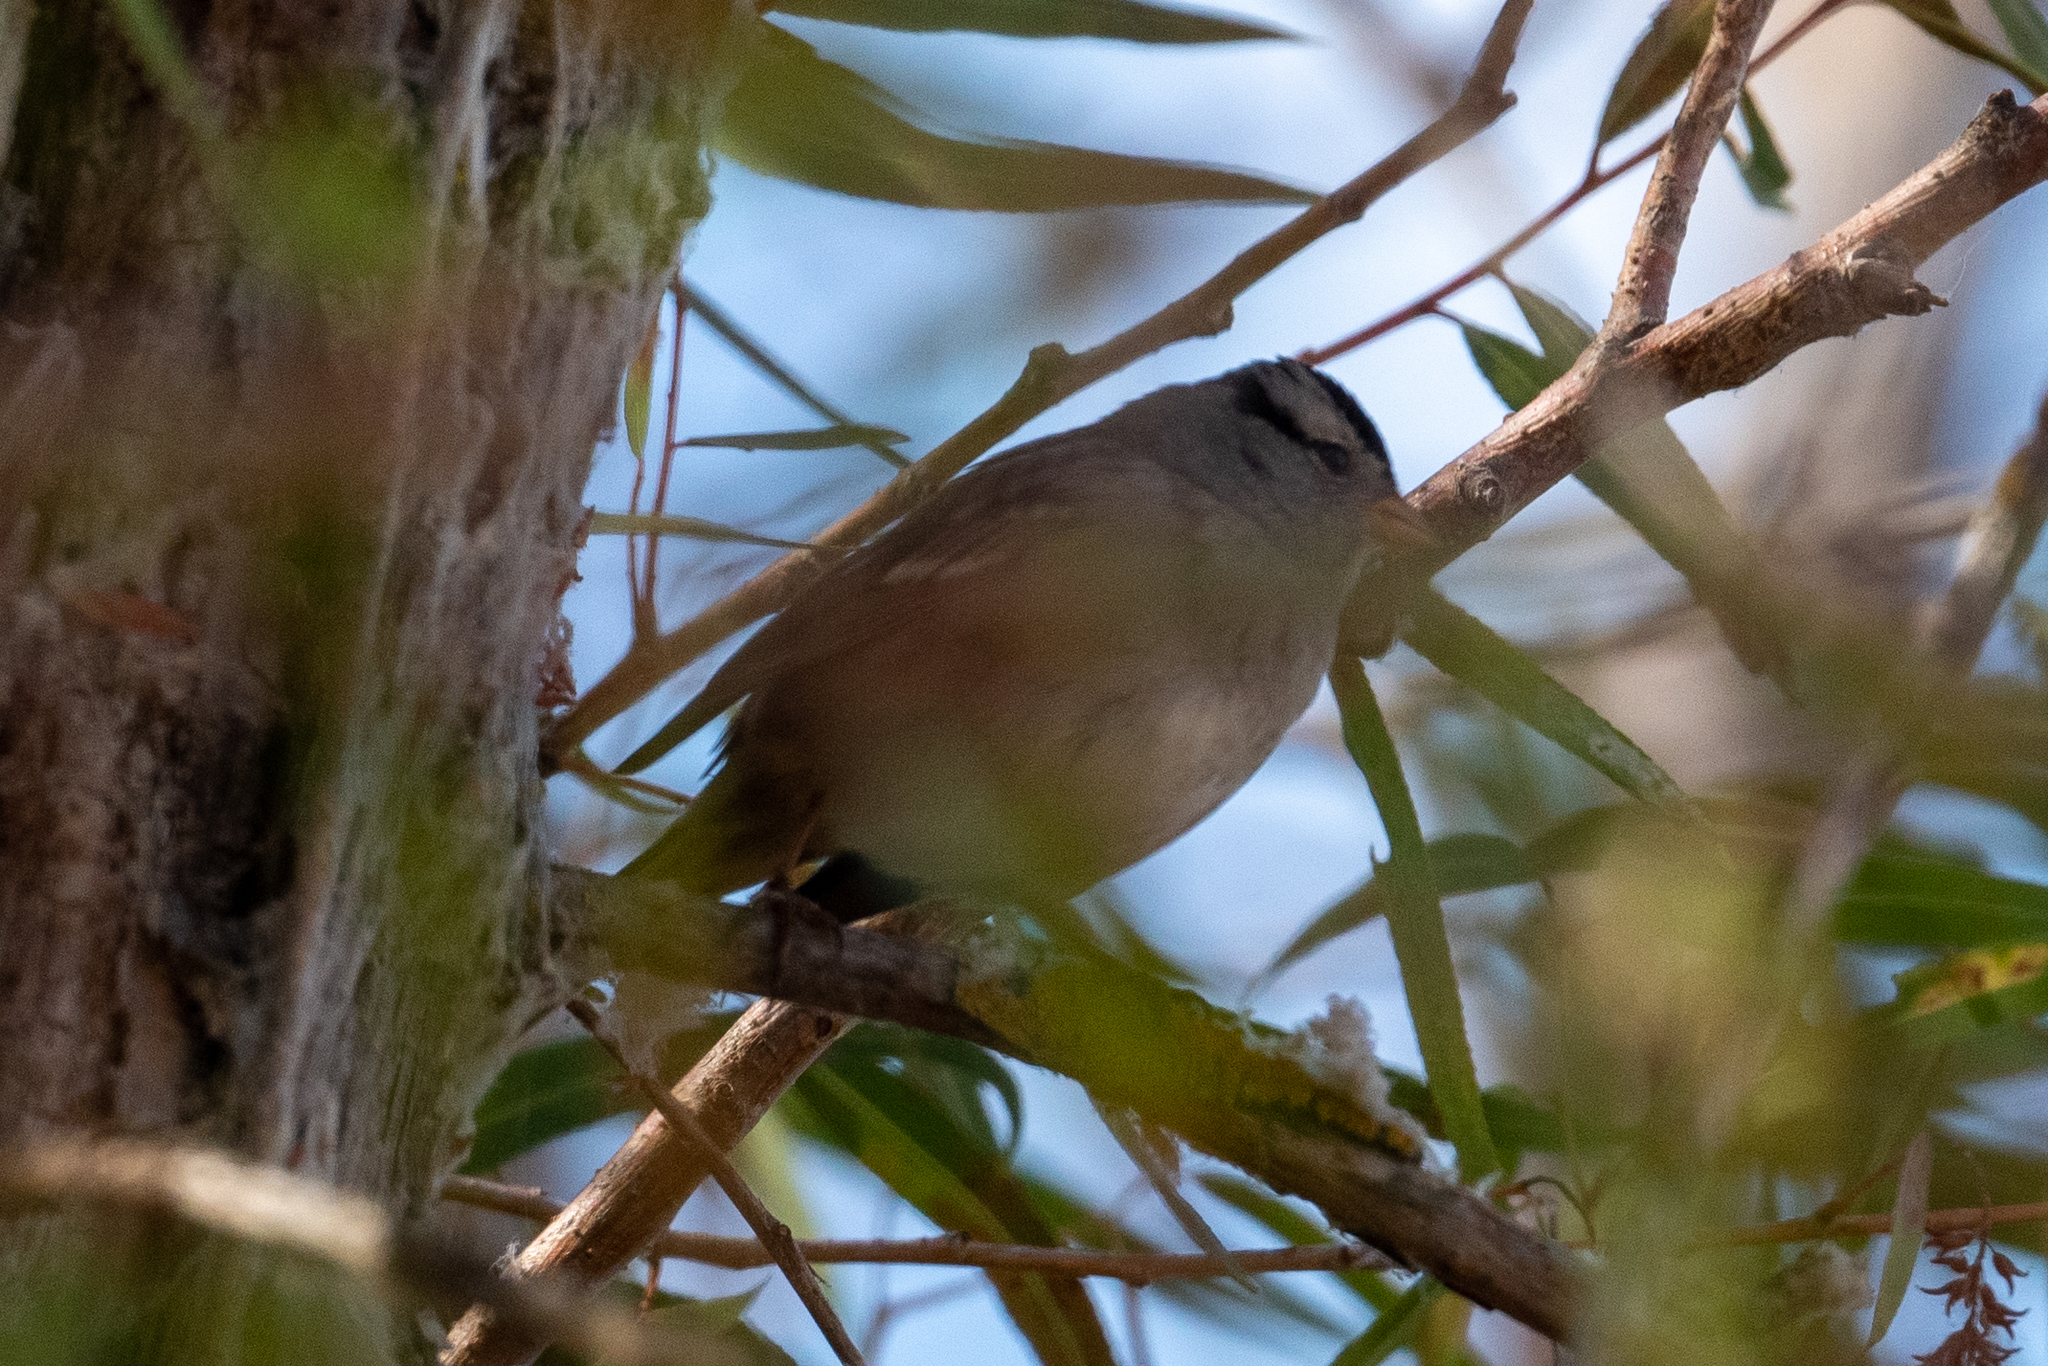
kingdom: Animalia
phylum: Chordata
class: Aves
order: Passeriformes
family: Passerellidae
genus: Zonotrichia
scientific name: Zonotrichia leucophrys
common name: White-crowned sparrow
